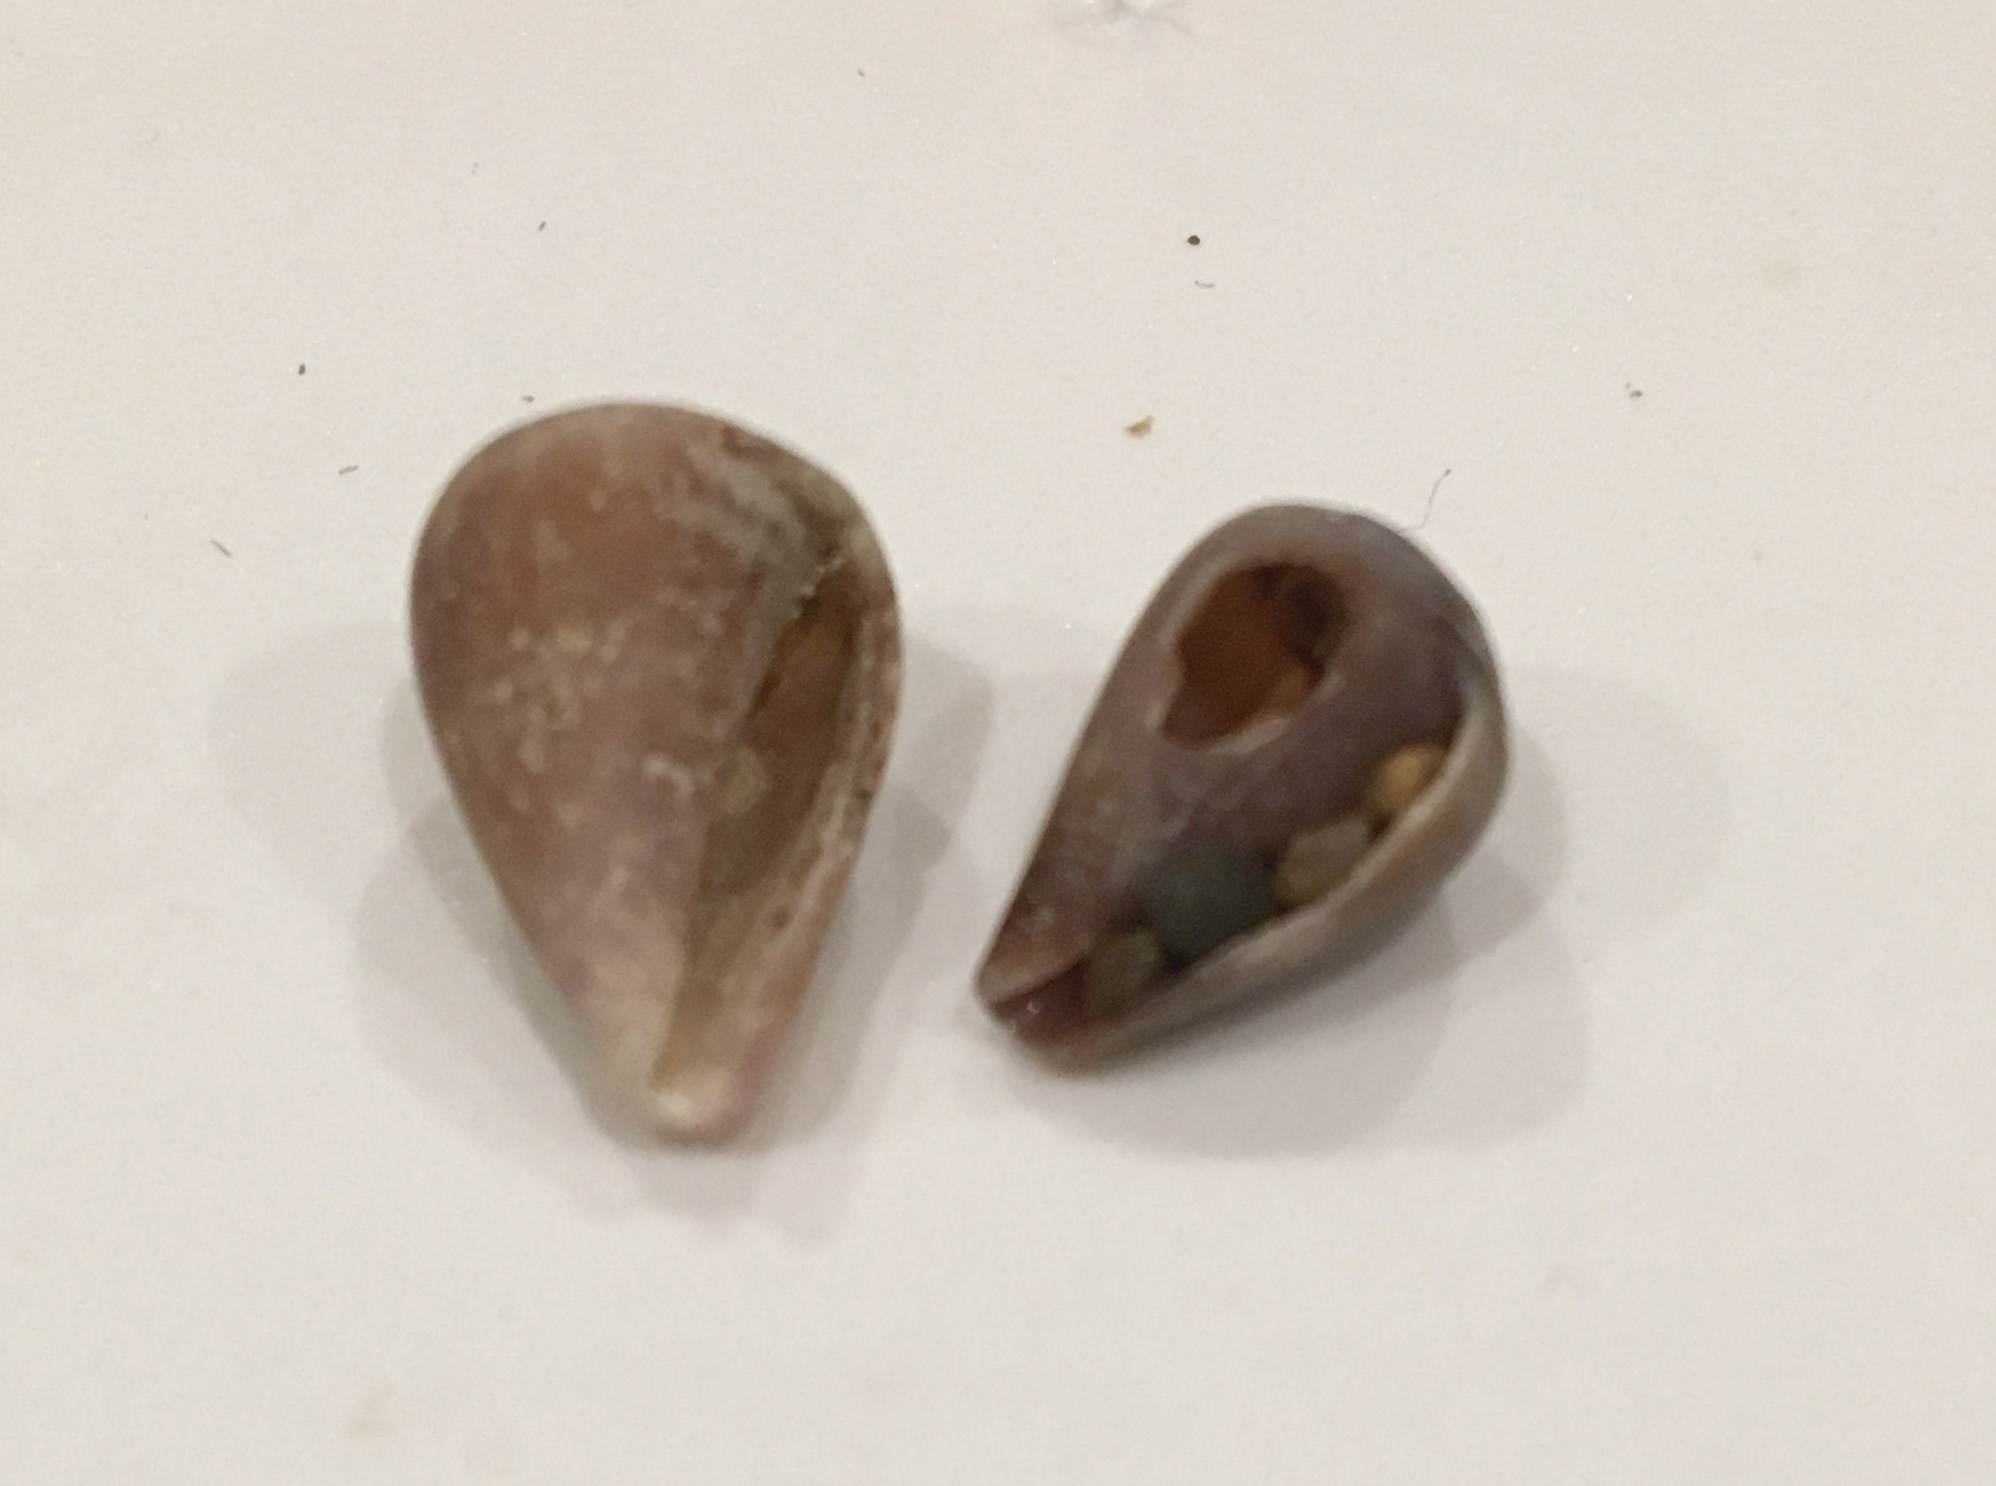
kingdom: Animalia
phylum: Mollusca
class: Gastropoda
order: Neogastropoda
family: Conidae
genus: Californiconus
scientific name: Californiconus californicus
